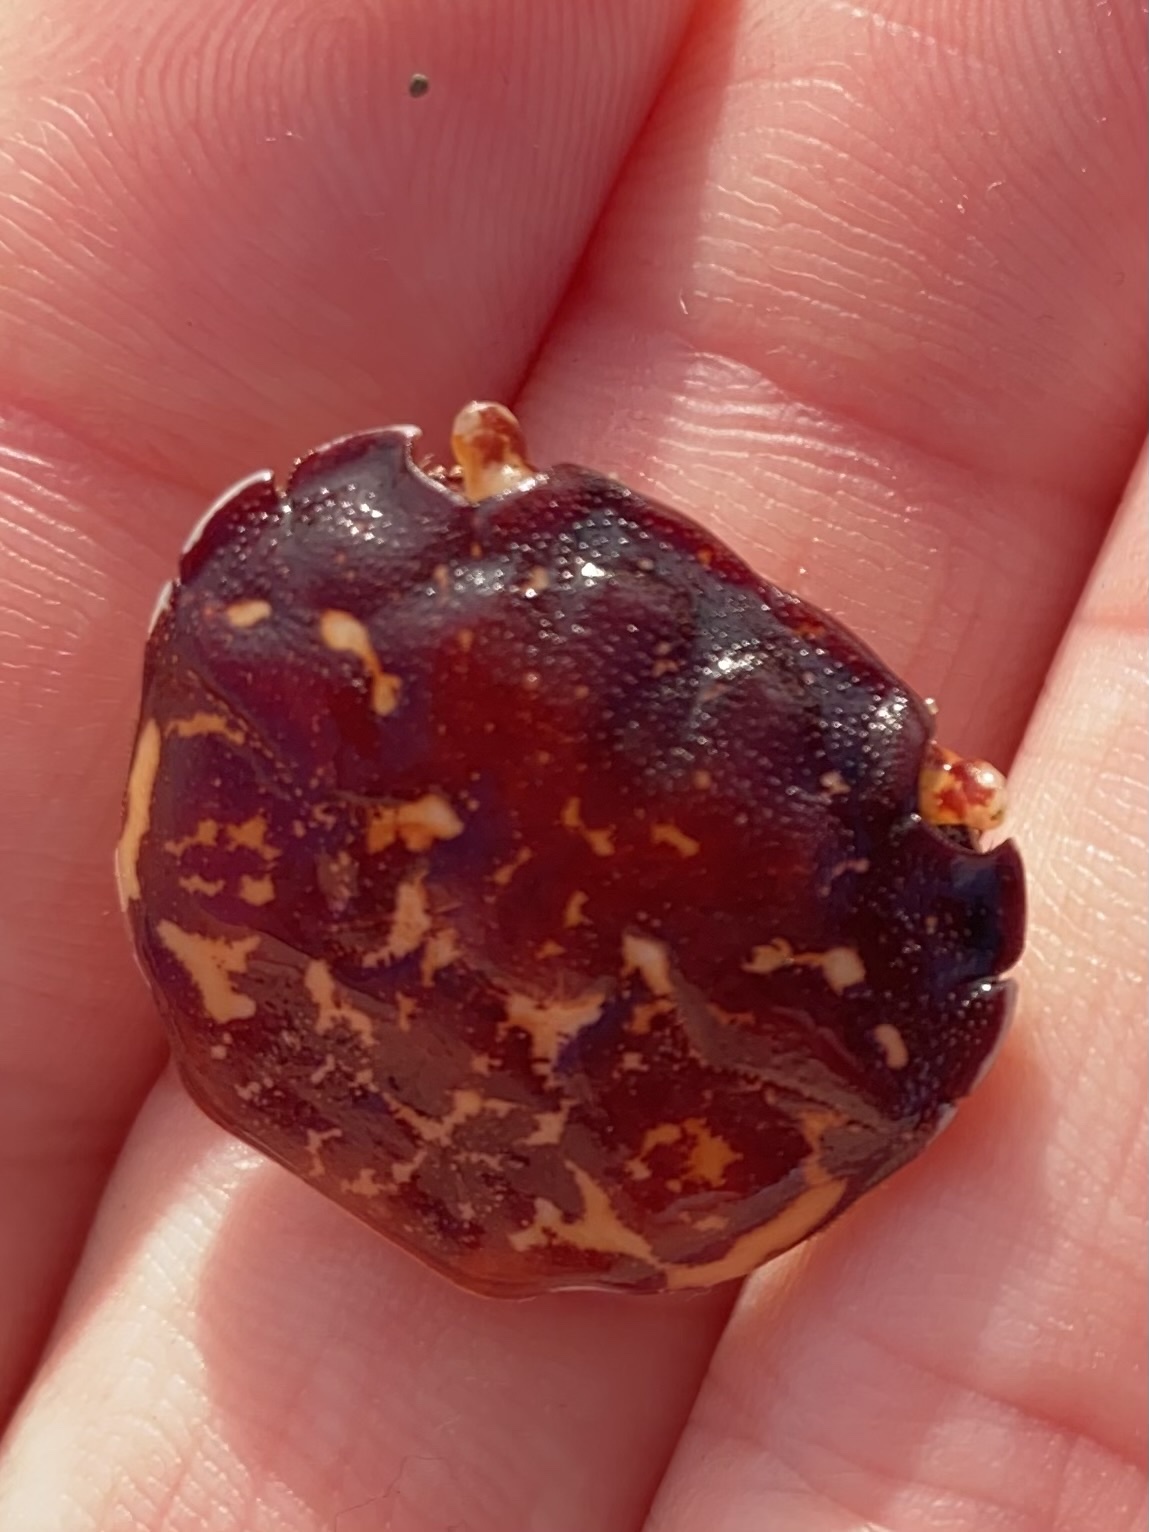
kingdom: Animalia
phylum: Arthropoda
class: Malacostraca
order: Decapoda
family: Varunidae
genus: Hemigrapsus
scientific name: Hemigrapsus nudus
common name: Purple shore crab
